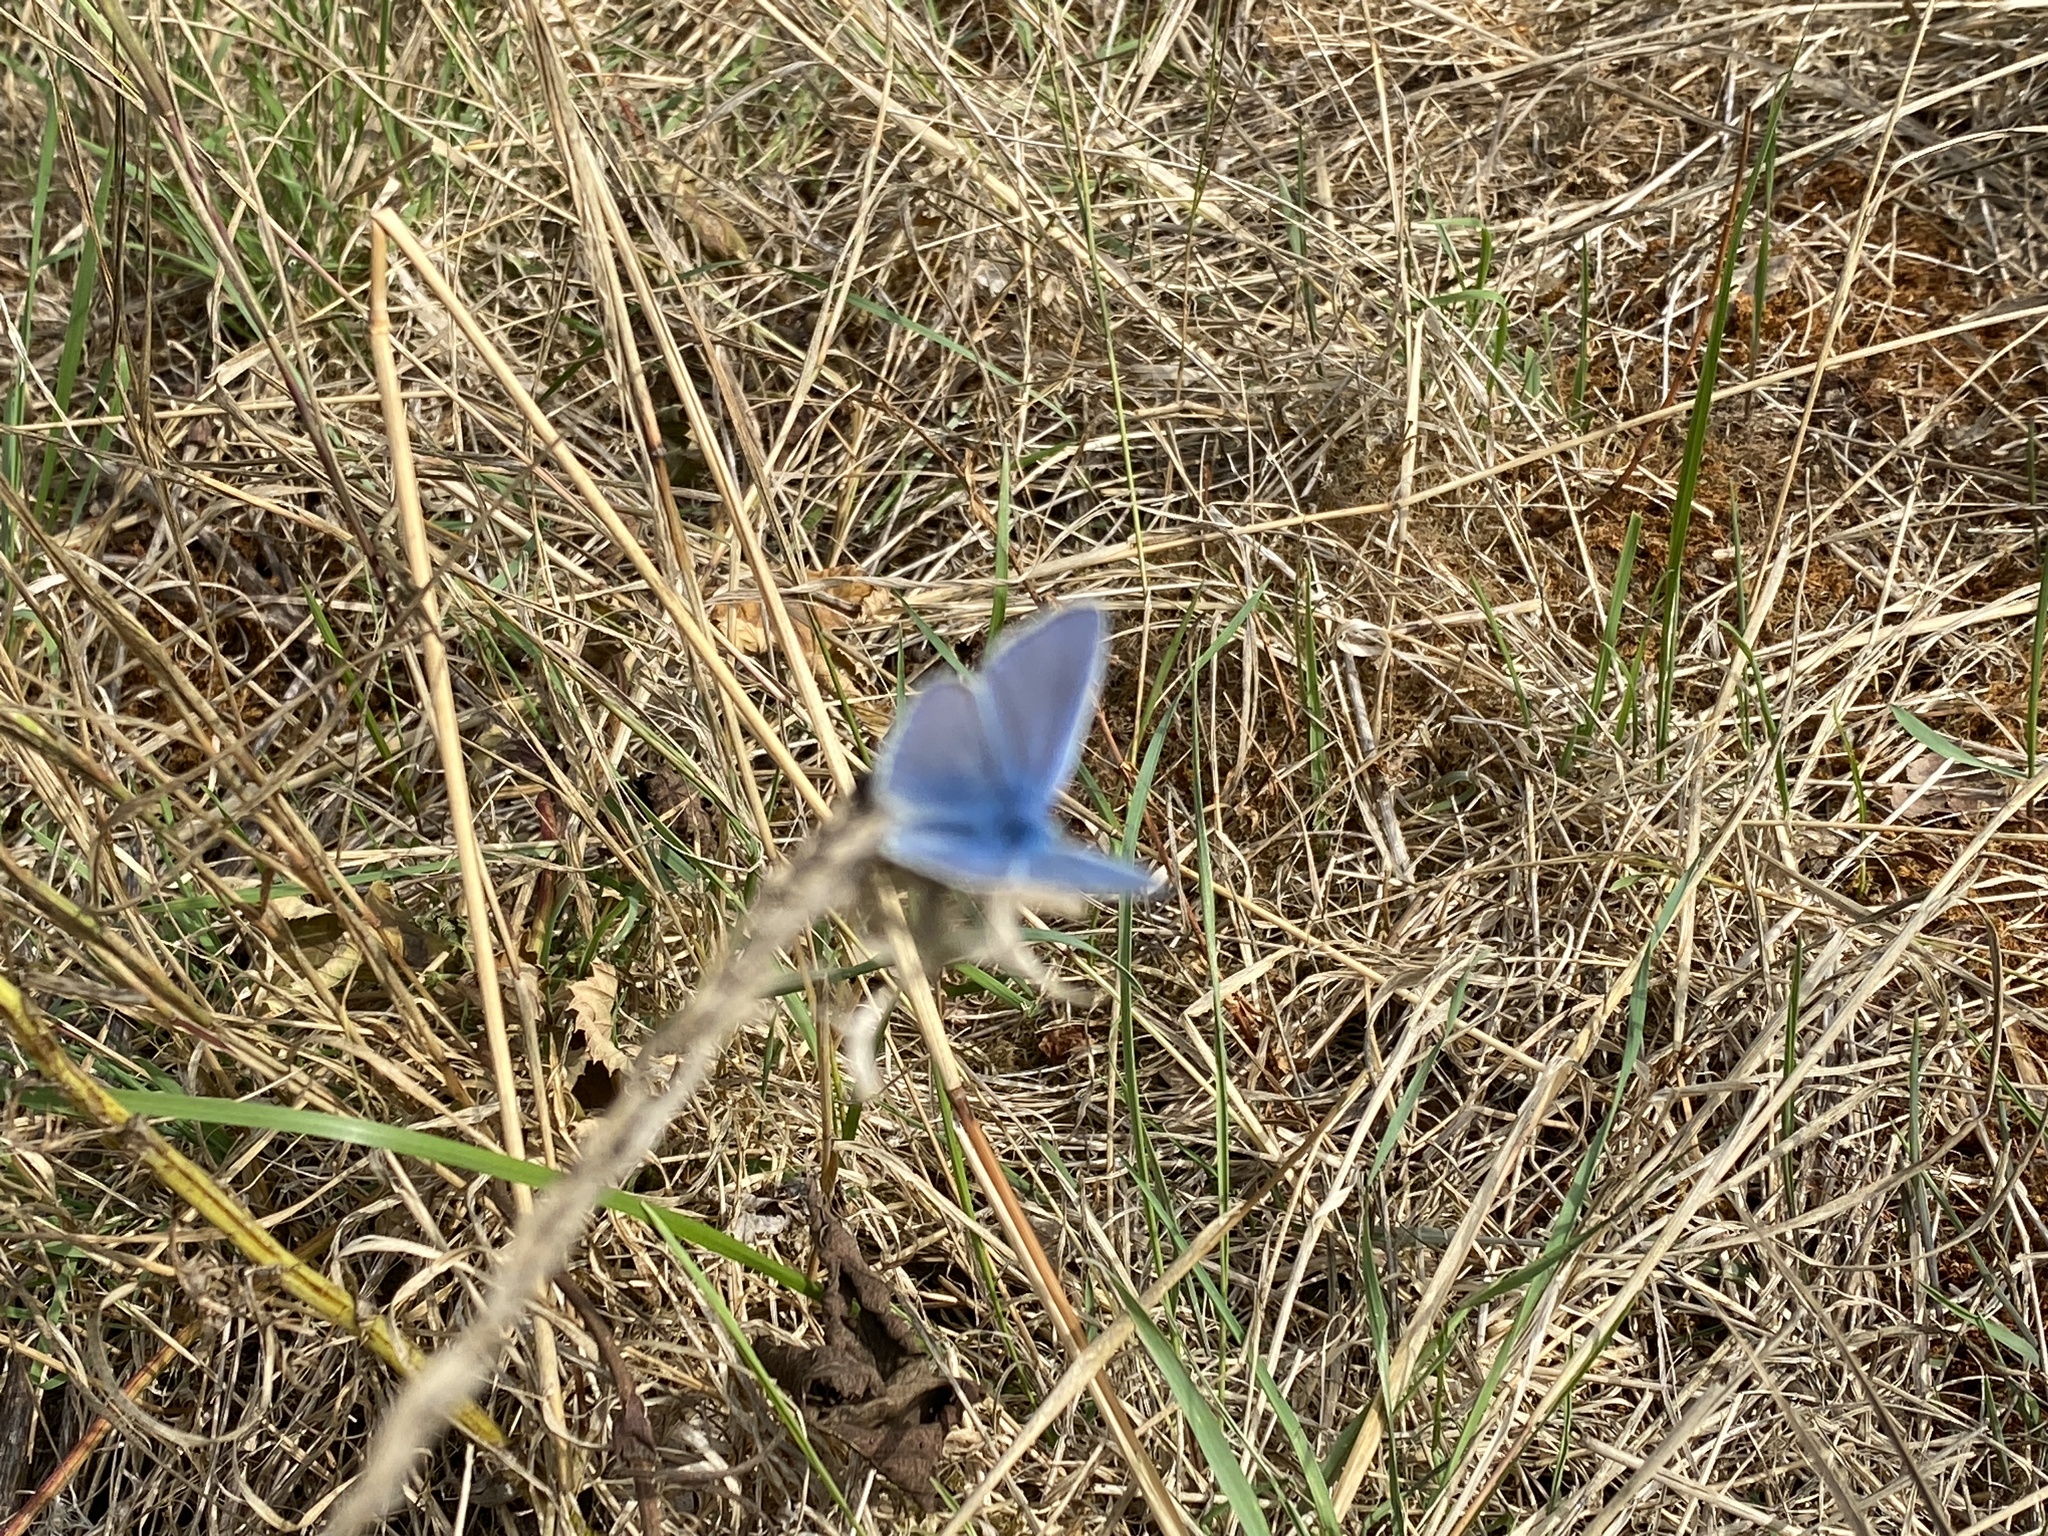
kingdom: Animalia
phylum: Arthropoda
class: Insecta
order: Lepidoptera
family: Lycaenidae
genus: Polyommatus
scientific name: Polyommatus icarus
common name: Common blue
